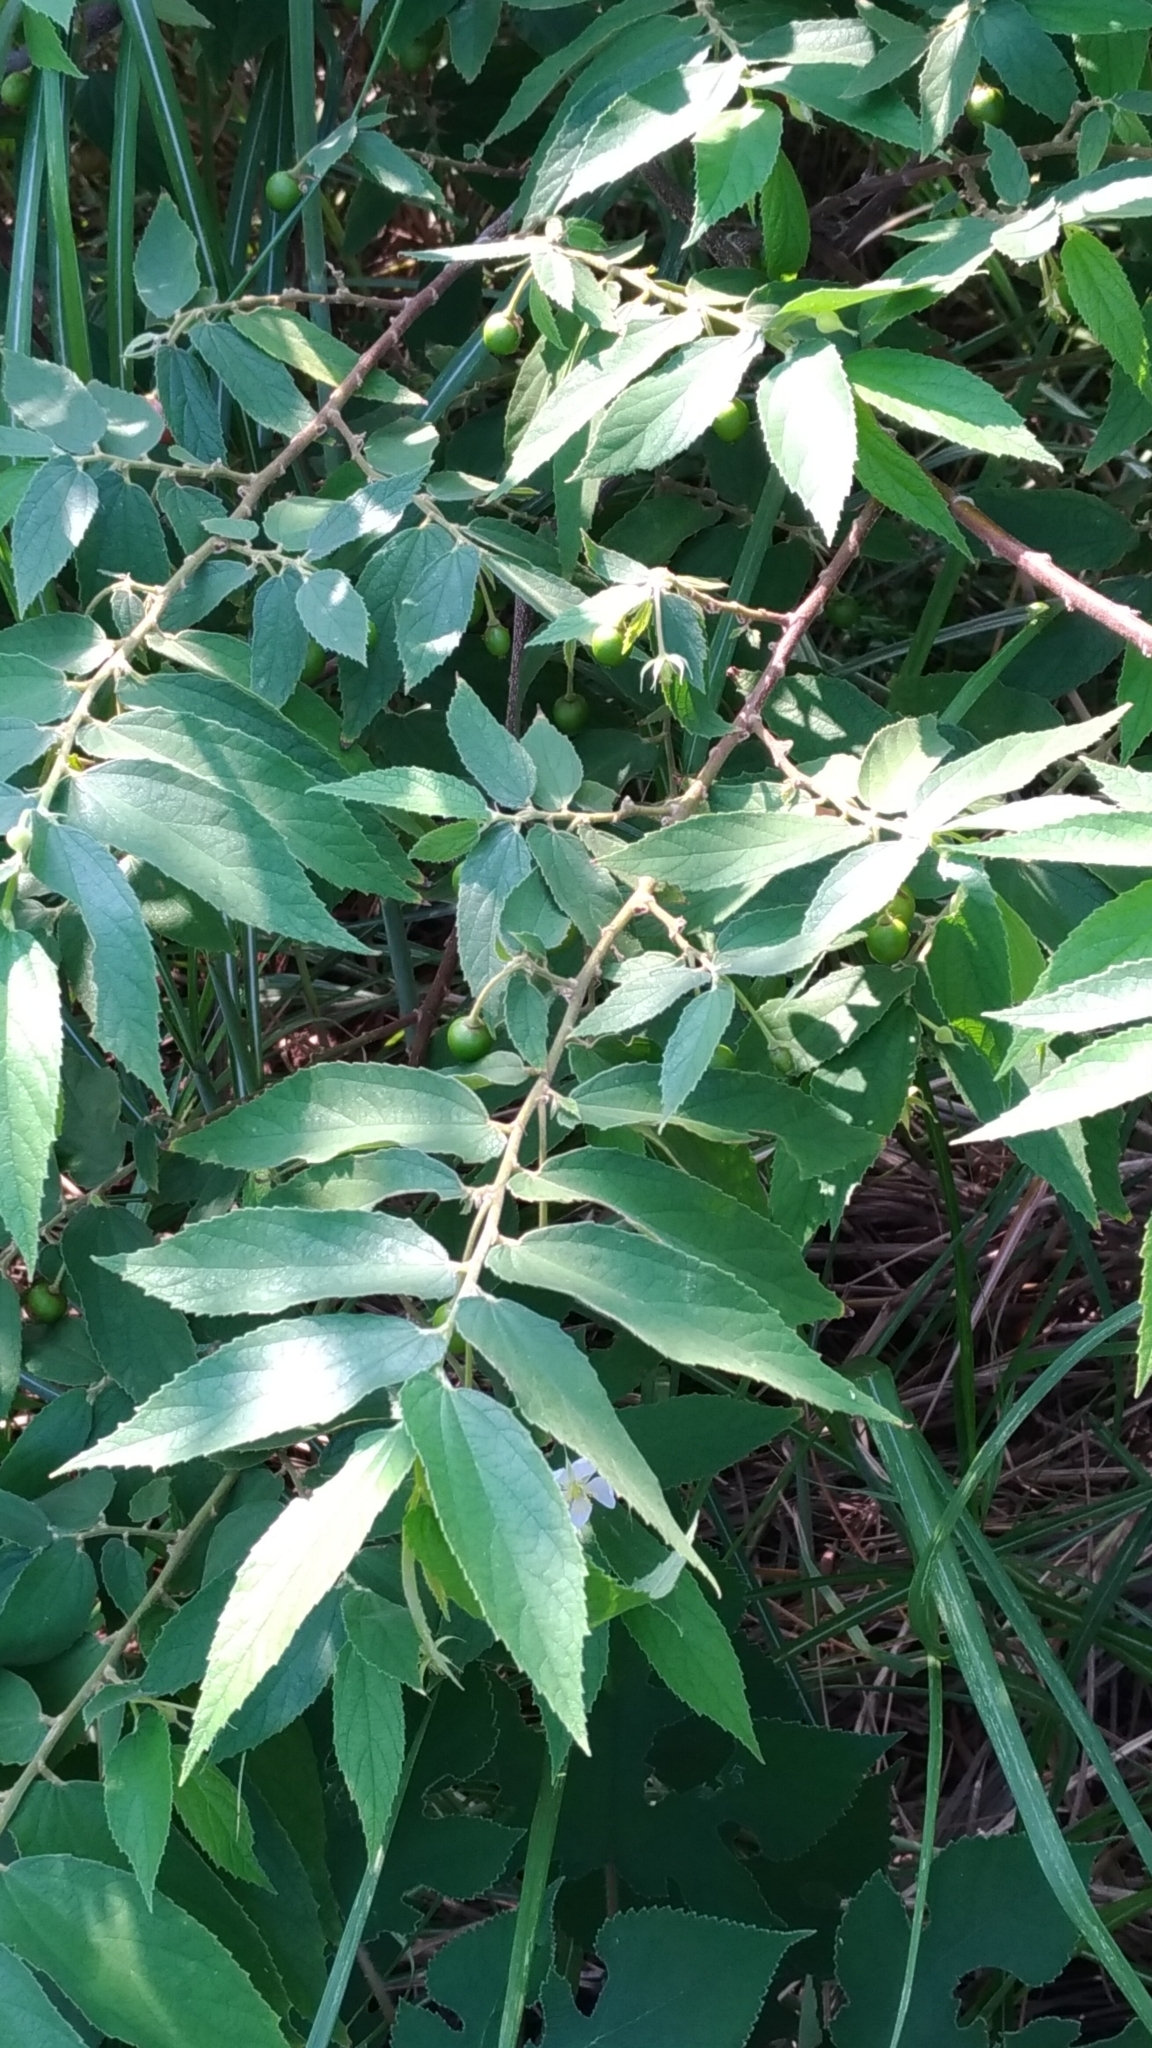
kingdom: Plantae
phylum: Tracheophyta
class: Magnoliopsida
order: Malvales
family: Muntingiaceae
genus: Muntingia
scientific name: Muntingia calabura
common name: Strawberrytree
